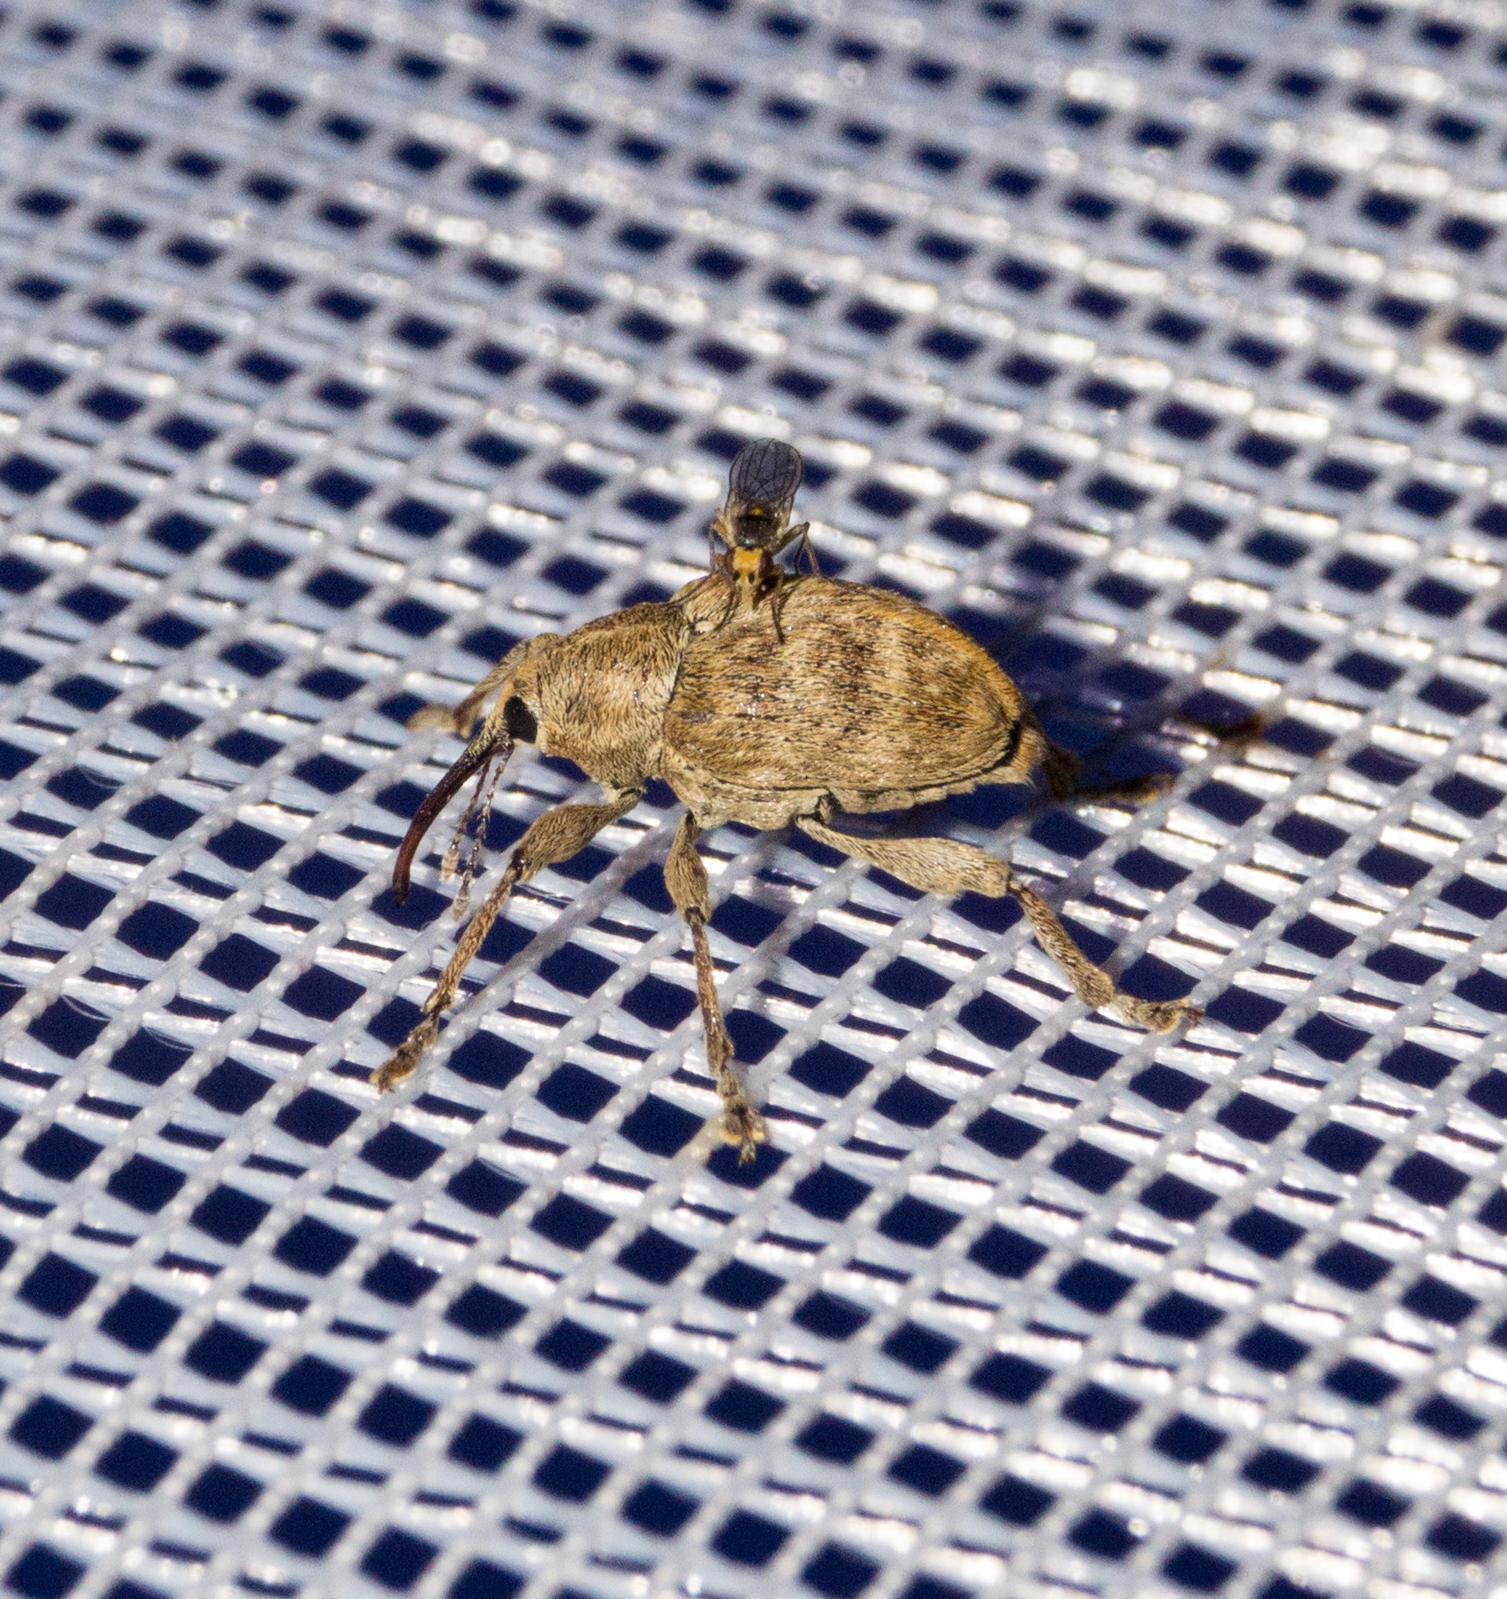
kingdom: Animalia
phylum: Arthropoda
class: Insecta
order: Coleoptera
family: Curculionidae
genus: Curculio
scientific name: Curculio venosus
